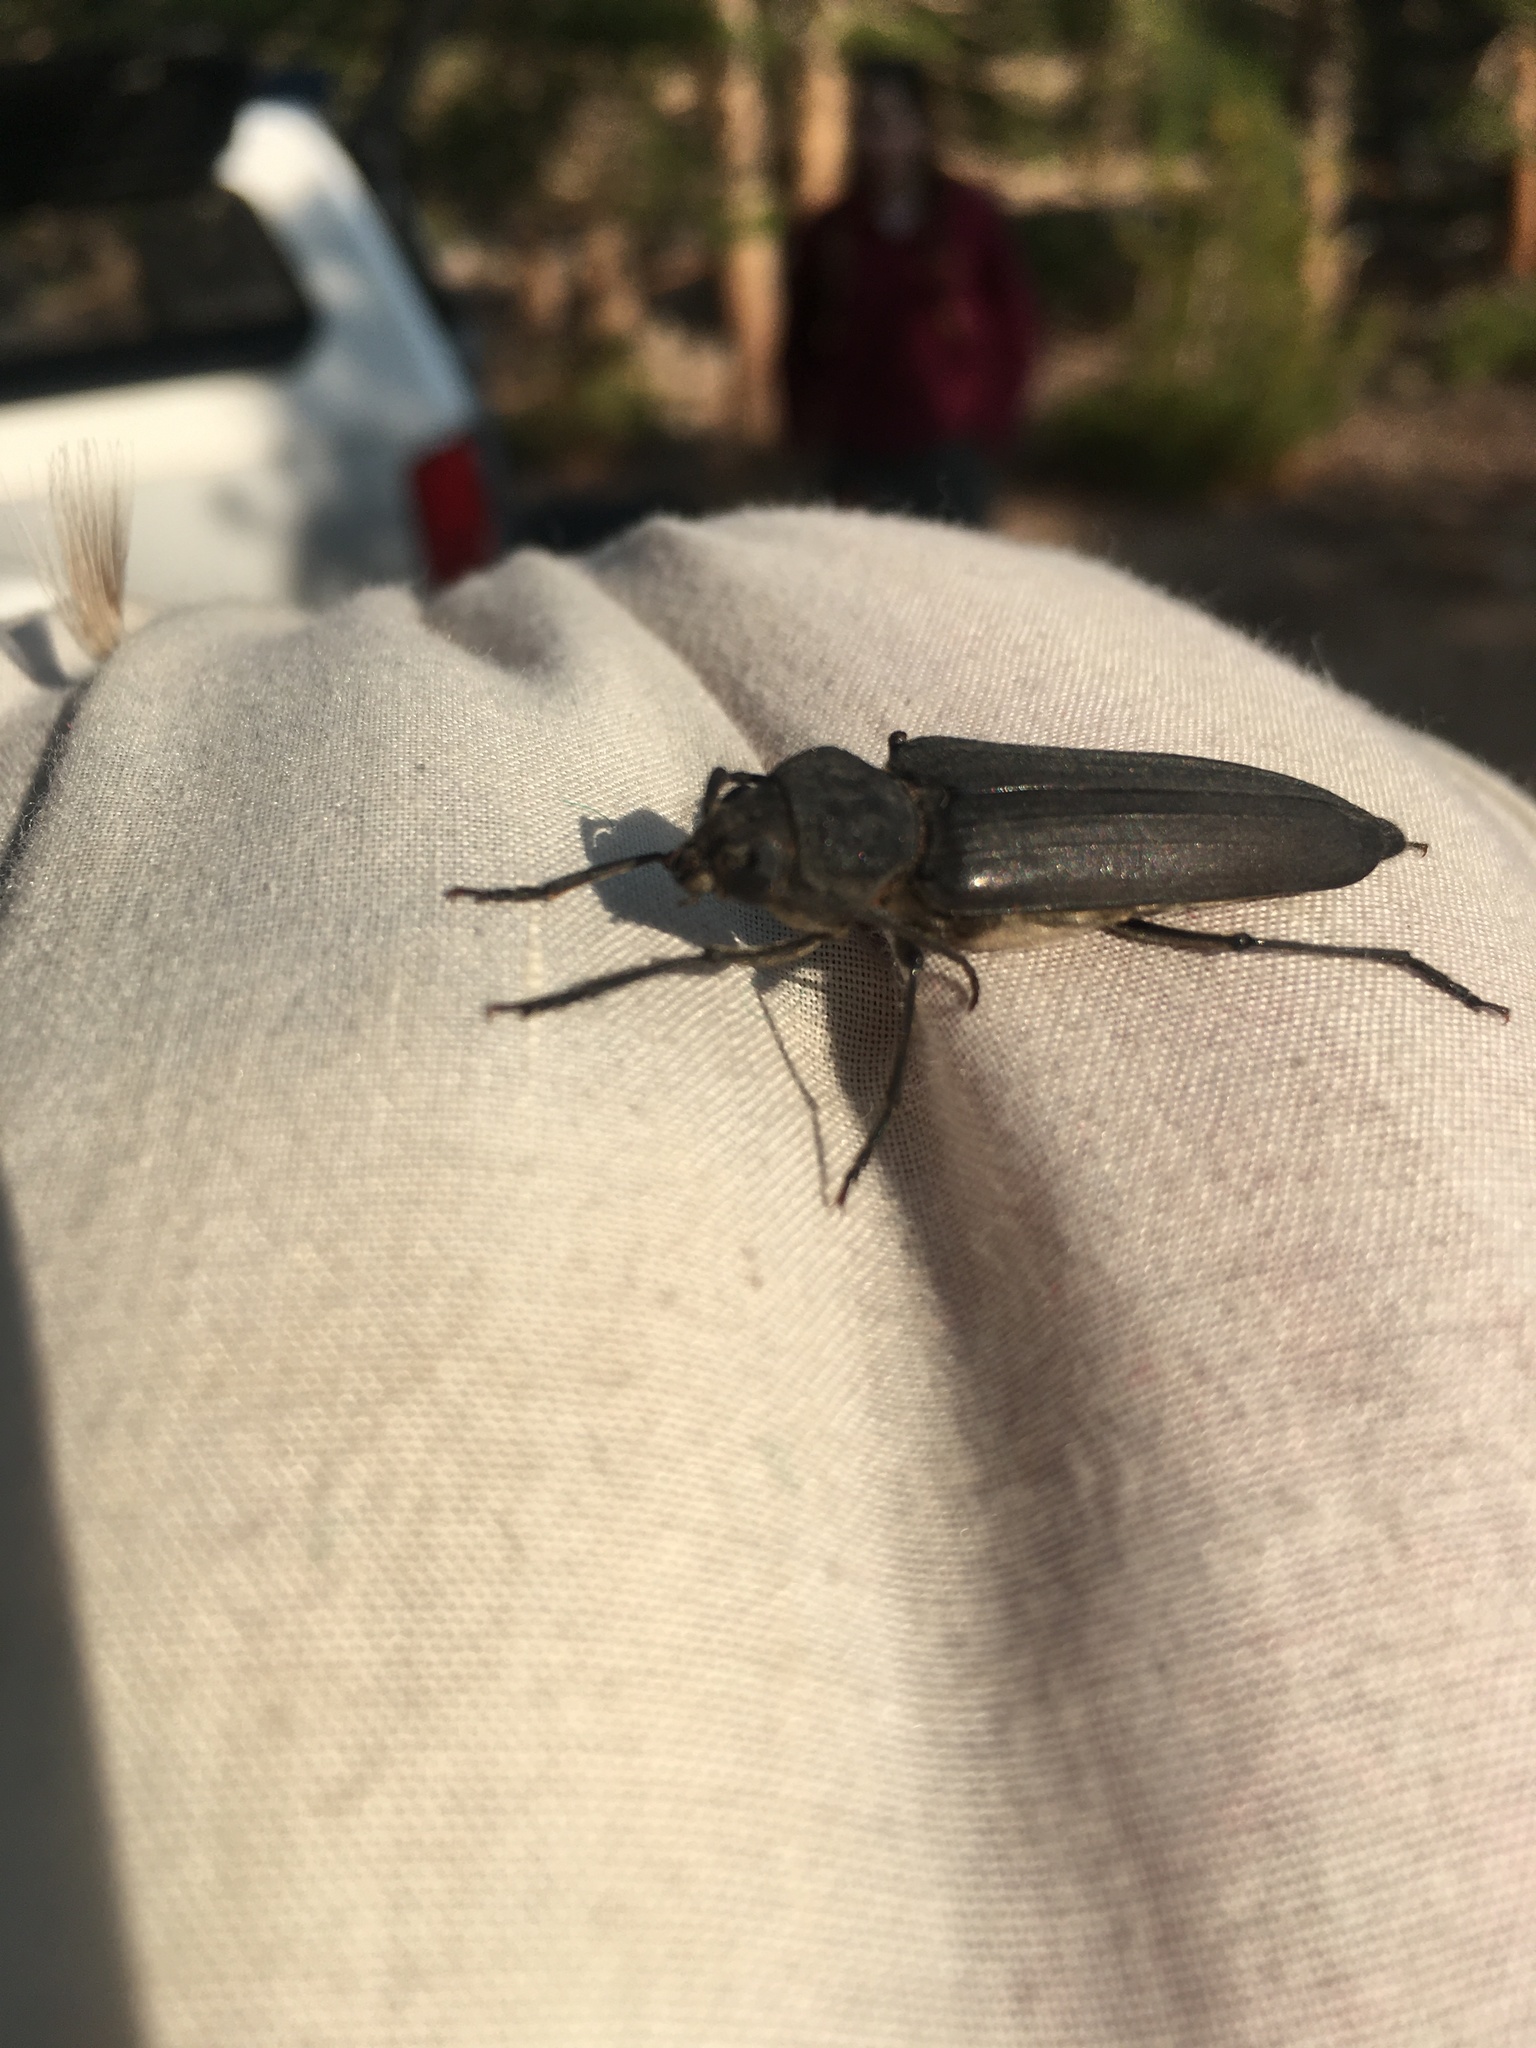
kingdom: Animalia
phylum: Arthropoda
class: Insecta
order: Coleoptera
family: Cerambycidae
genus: Arhopalus
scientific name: Arhopalus asperatus
